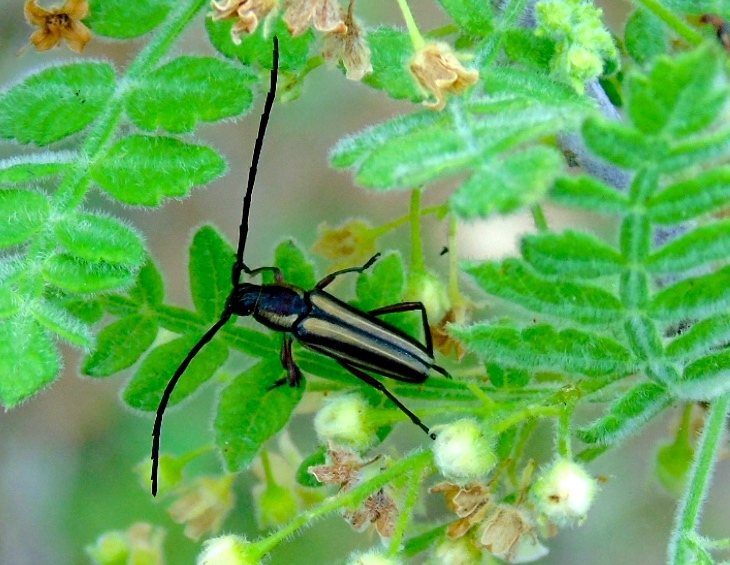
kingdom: Animalia
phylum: Arthropoda
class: Insecta
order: Coleoptera
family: Cerambycidae
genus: Sphaenothecus
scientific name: Sphaenothecus
